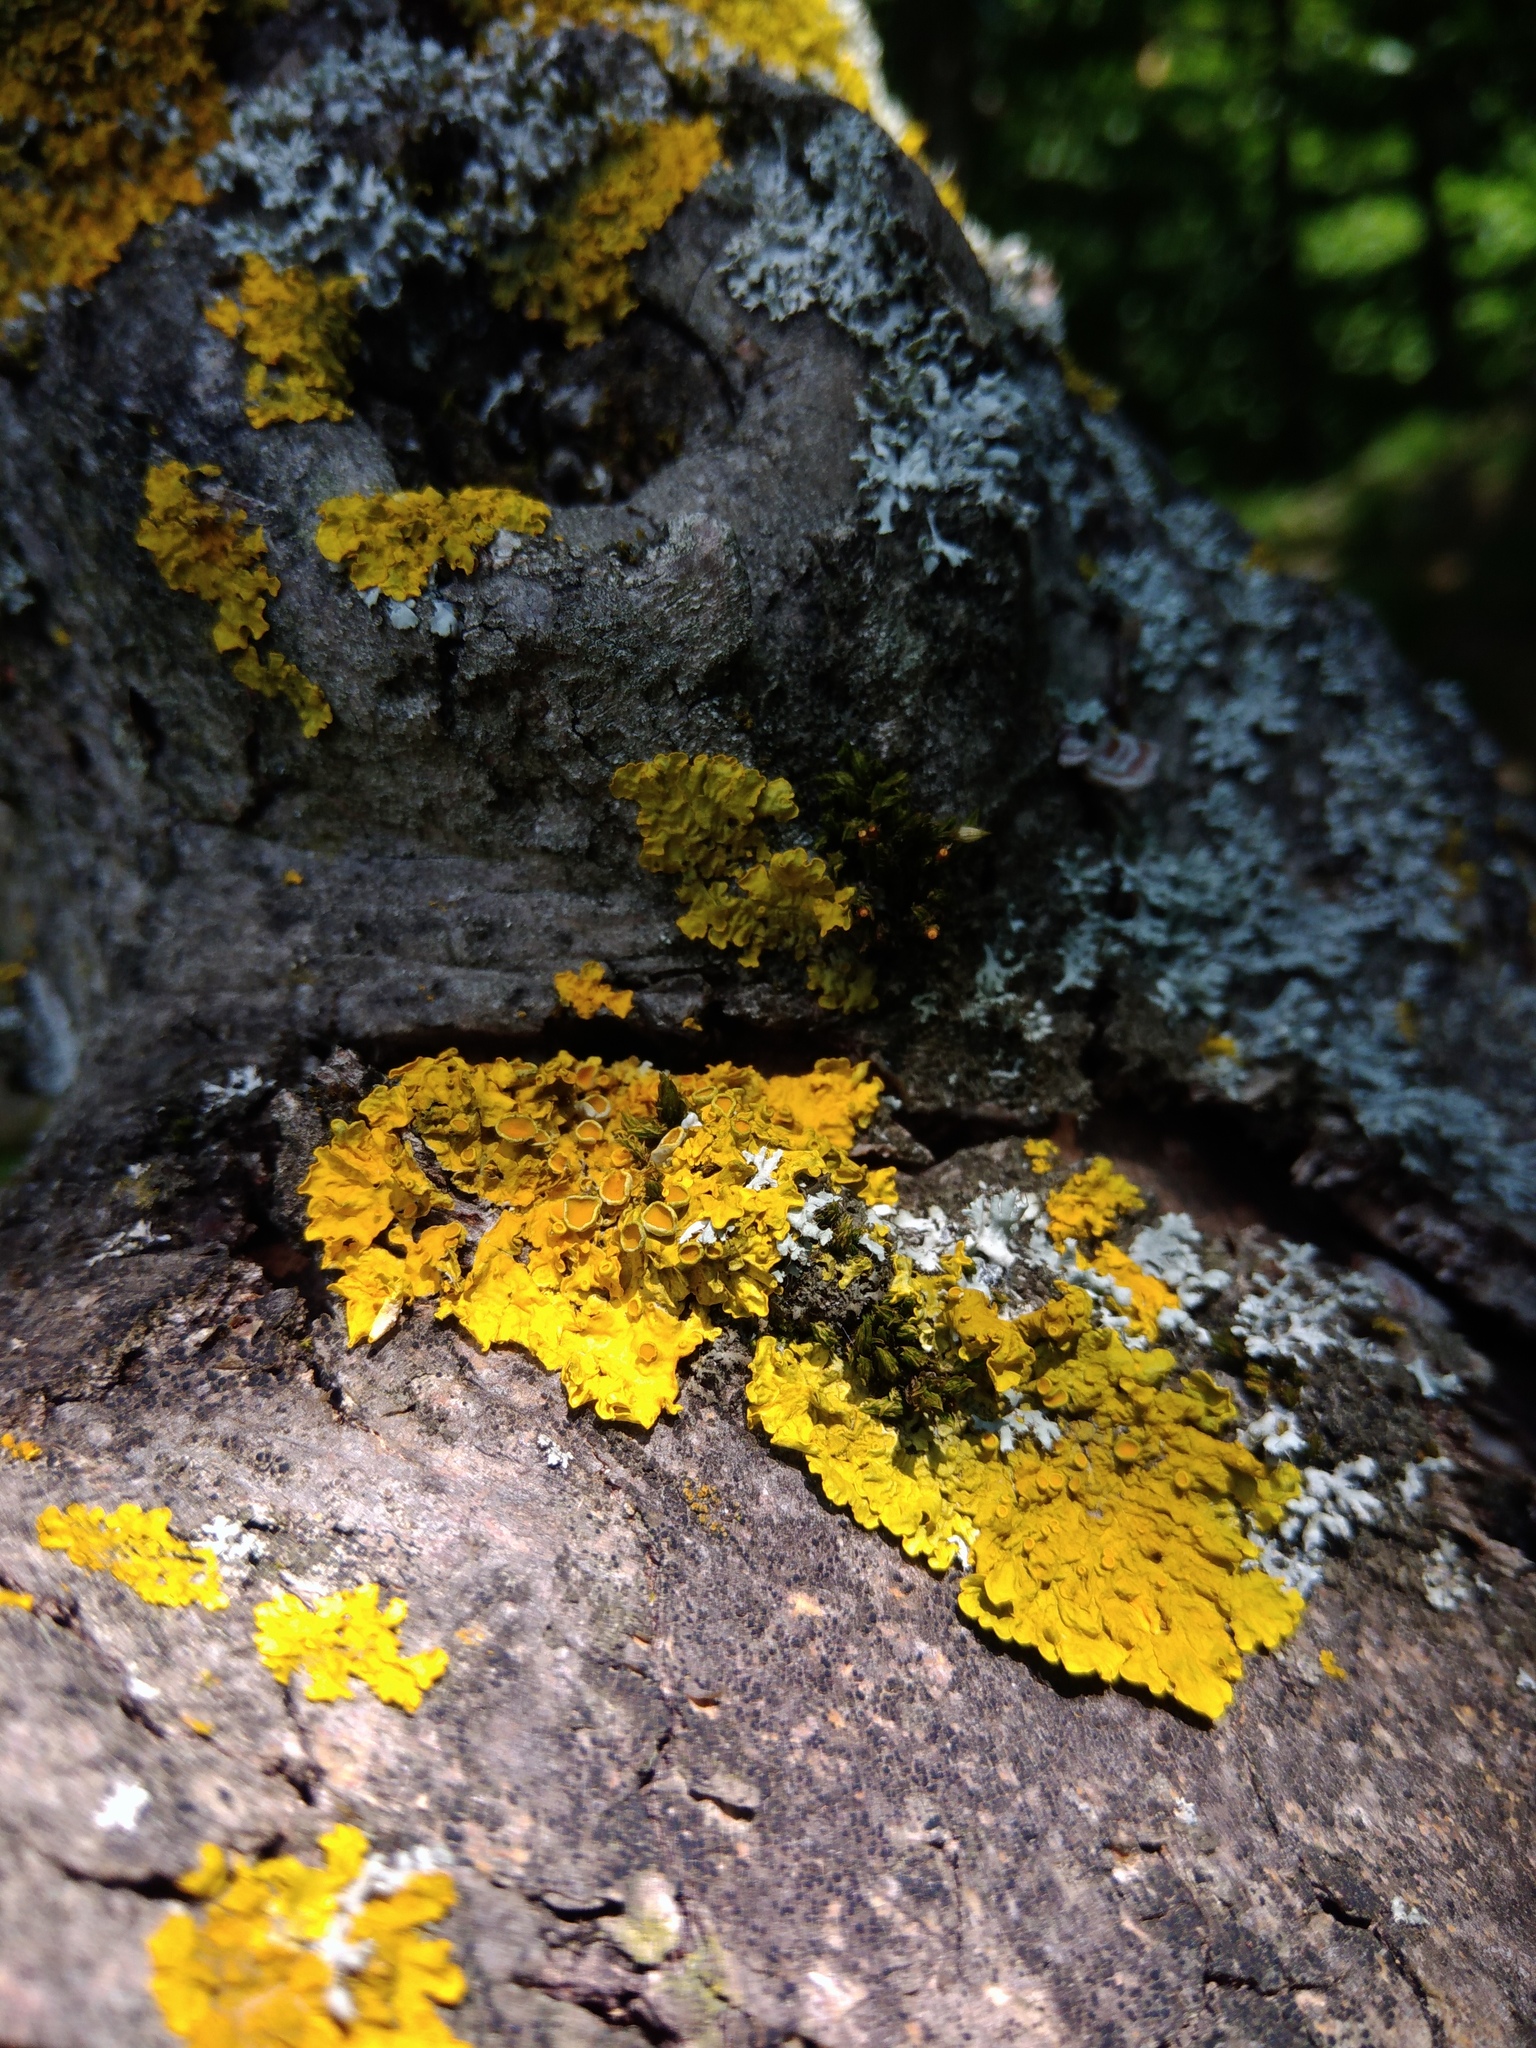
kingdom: Fungi
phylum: Ascomycota
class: Lecanoromycetes
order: Teloschistales
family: Teloschistaceae
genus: Xanthoria
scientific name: Xanthoria parietina
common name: Common orange lichen
